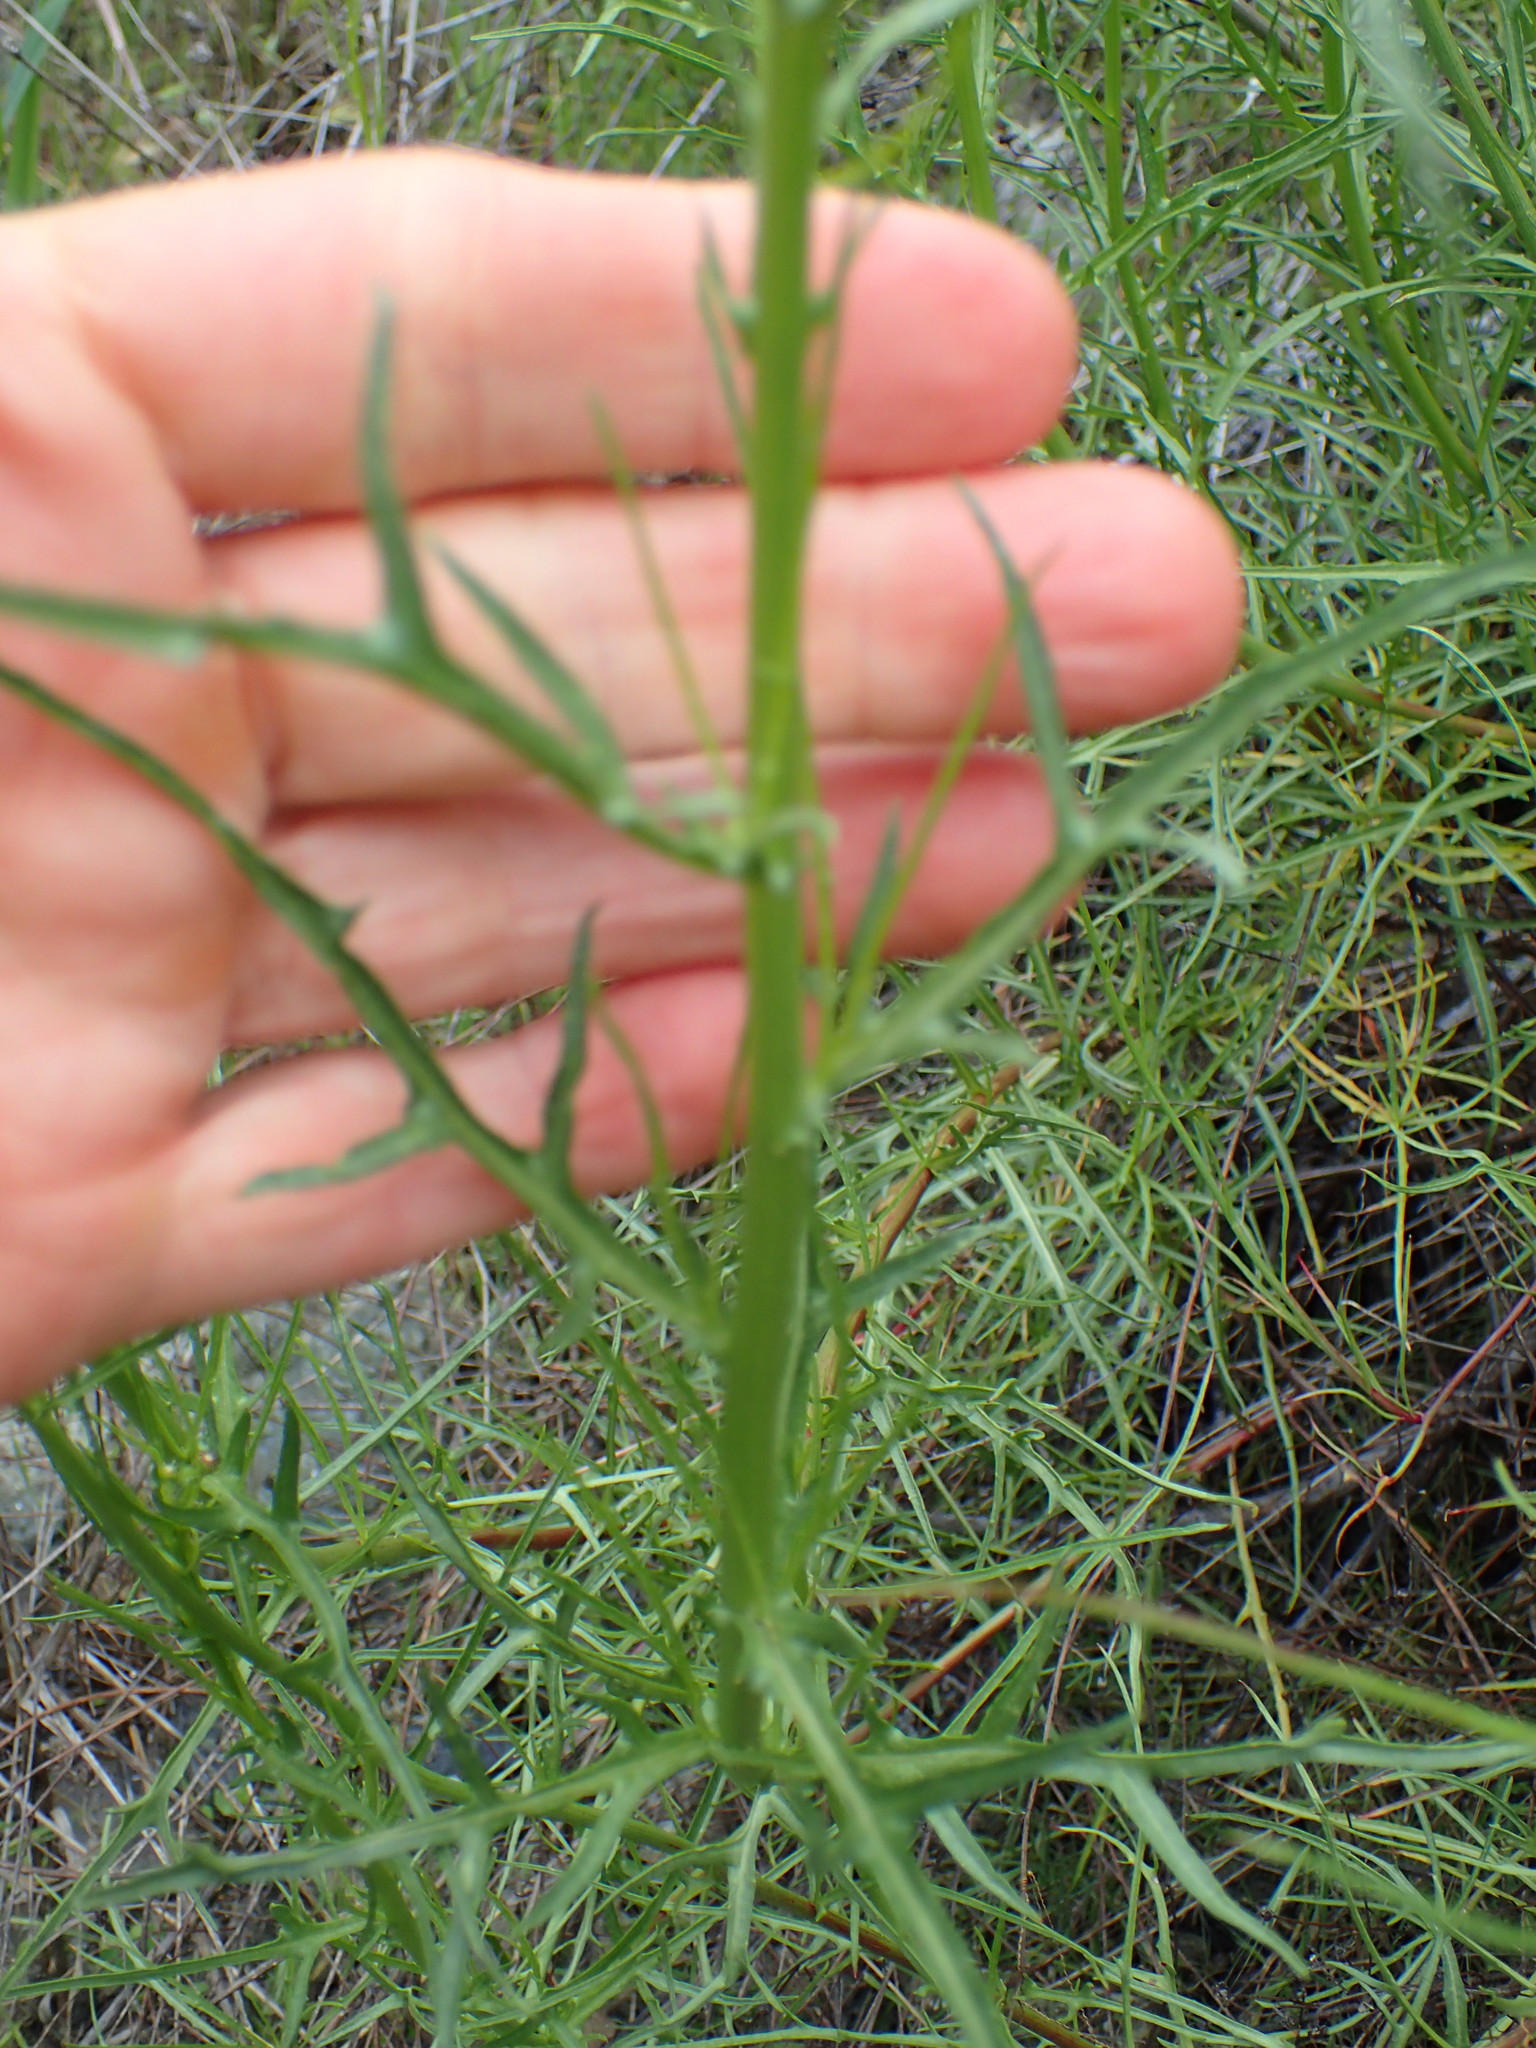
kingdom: Plantae
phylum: Tracheophyta
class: Magnoliopsida
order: Asterales
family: Asteraceae
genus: Malacothrix
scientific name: Malacothrix saxatilis
